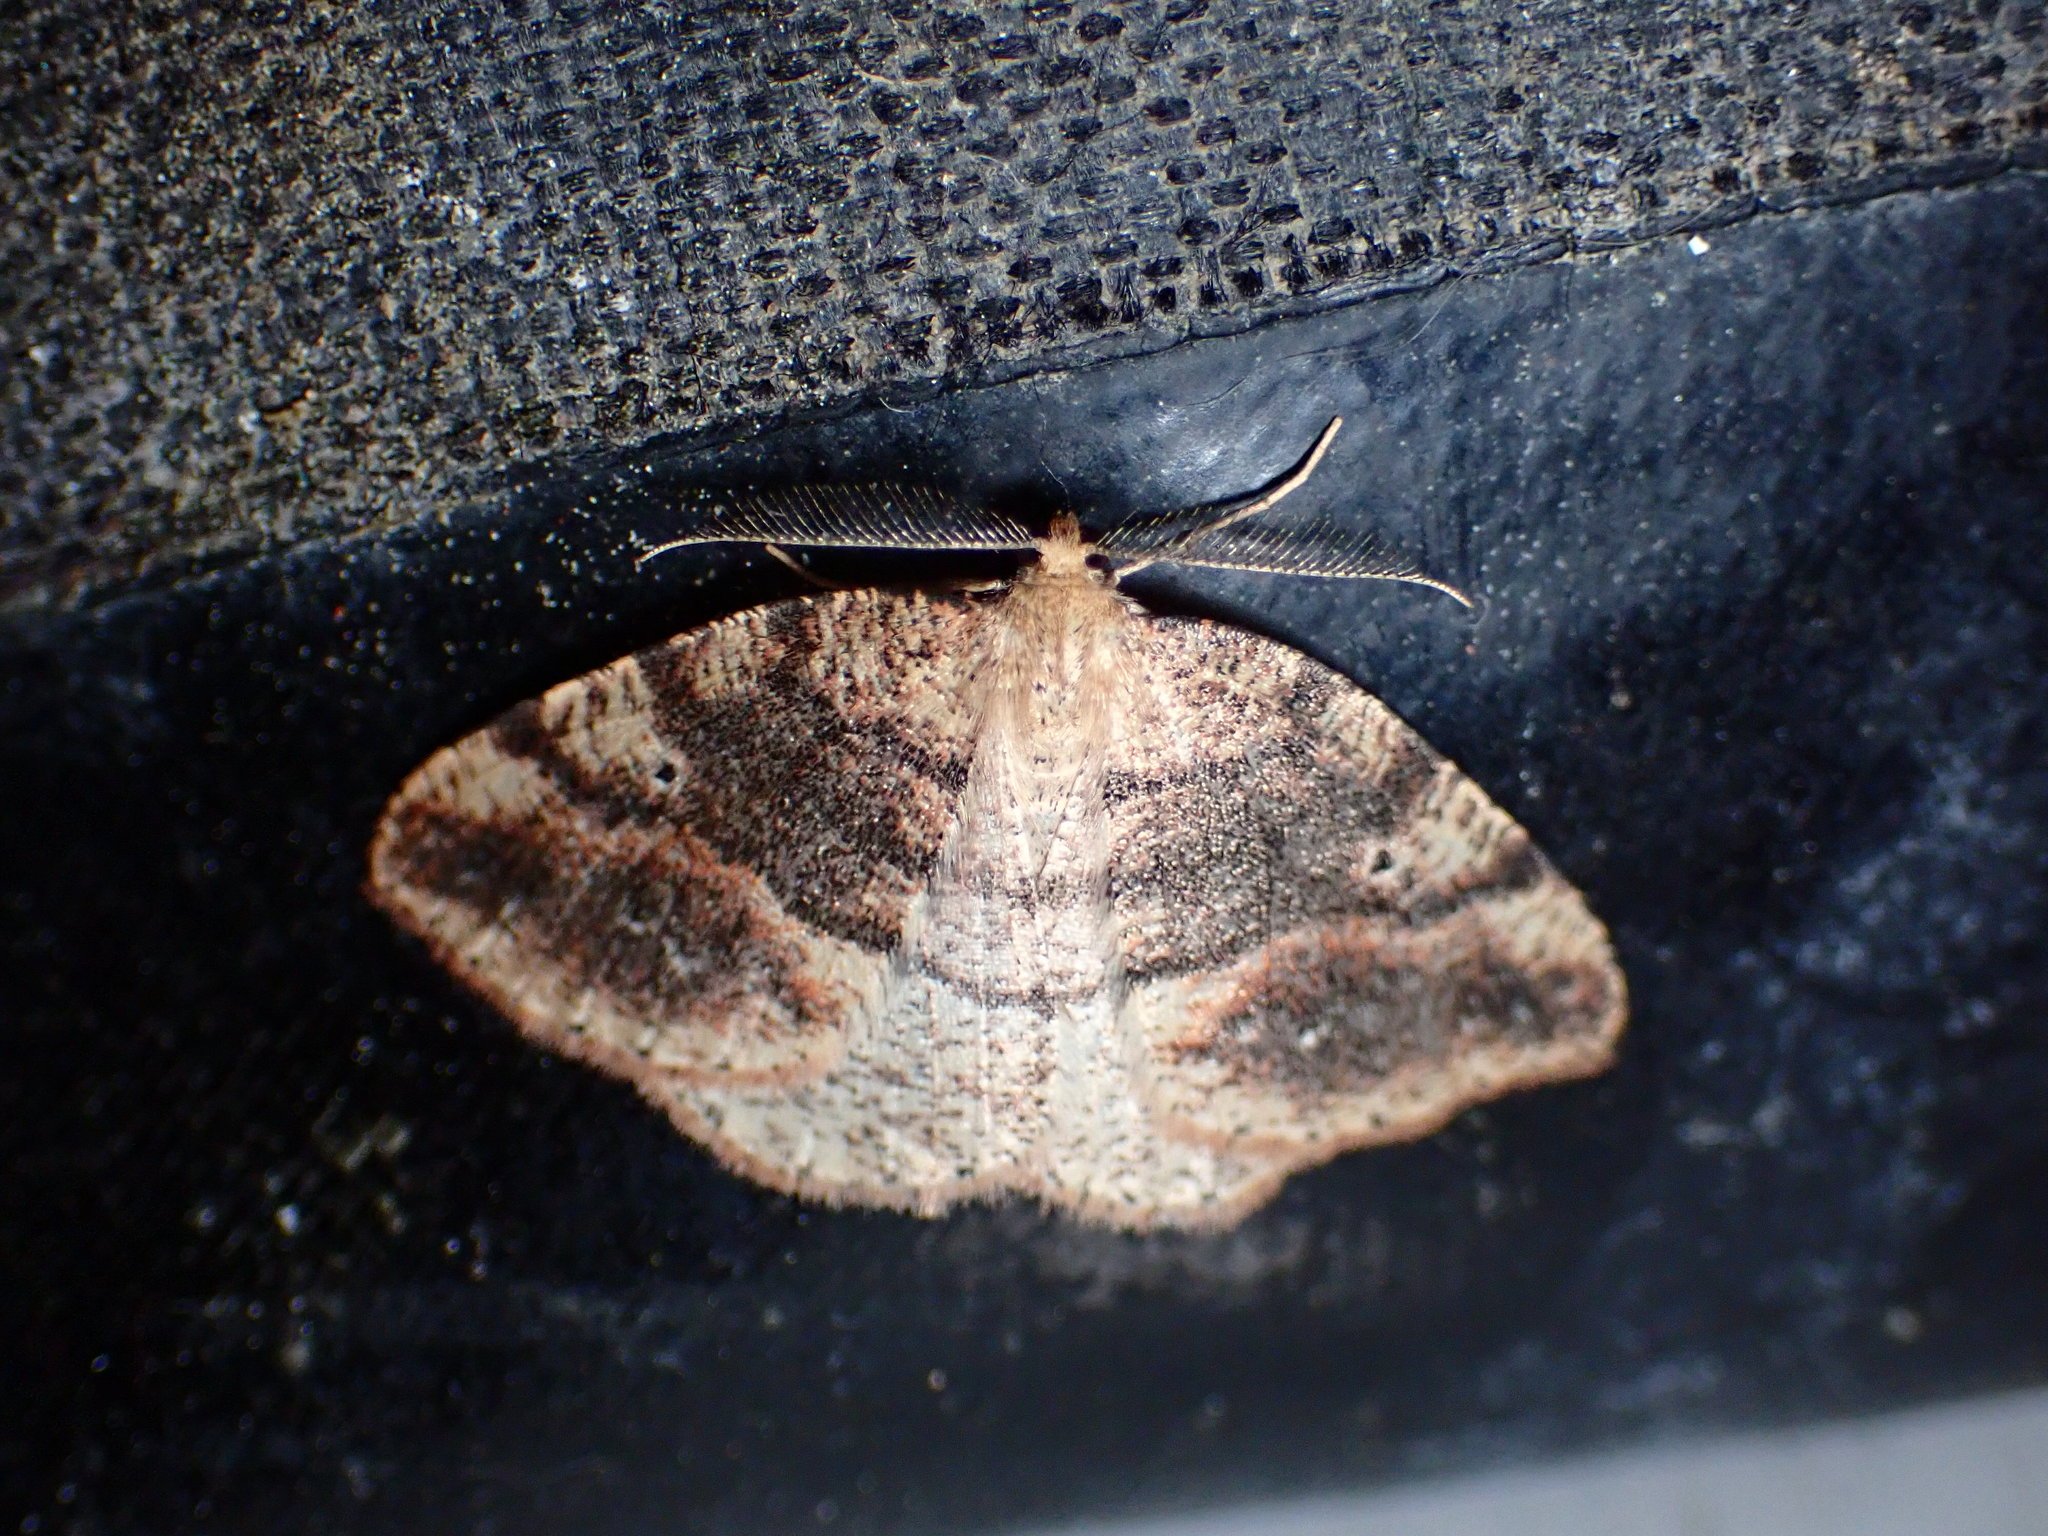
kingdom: Animalia
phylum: Arthropoda
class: Insecta
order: Lepidoptera
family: Geometridae
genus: Drepanulatrix
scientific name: Drepanulatrix carnearia
